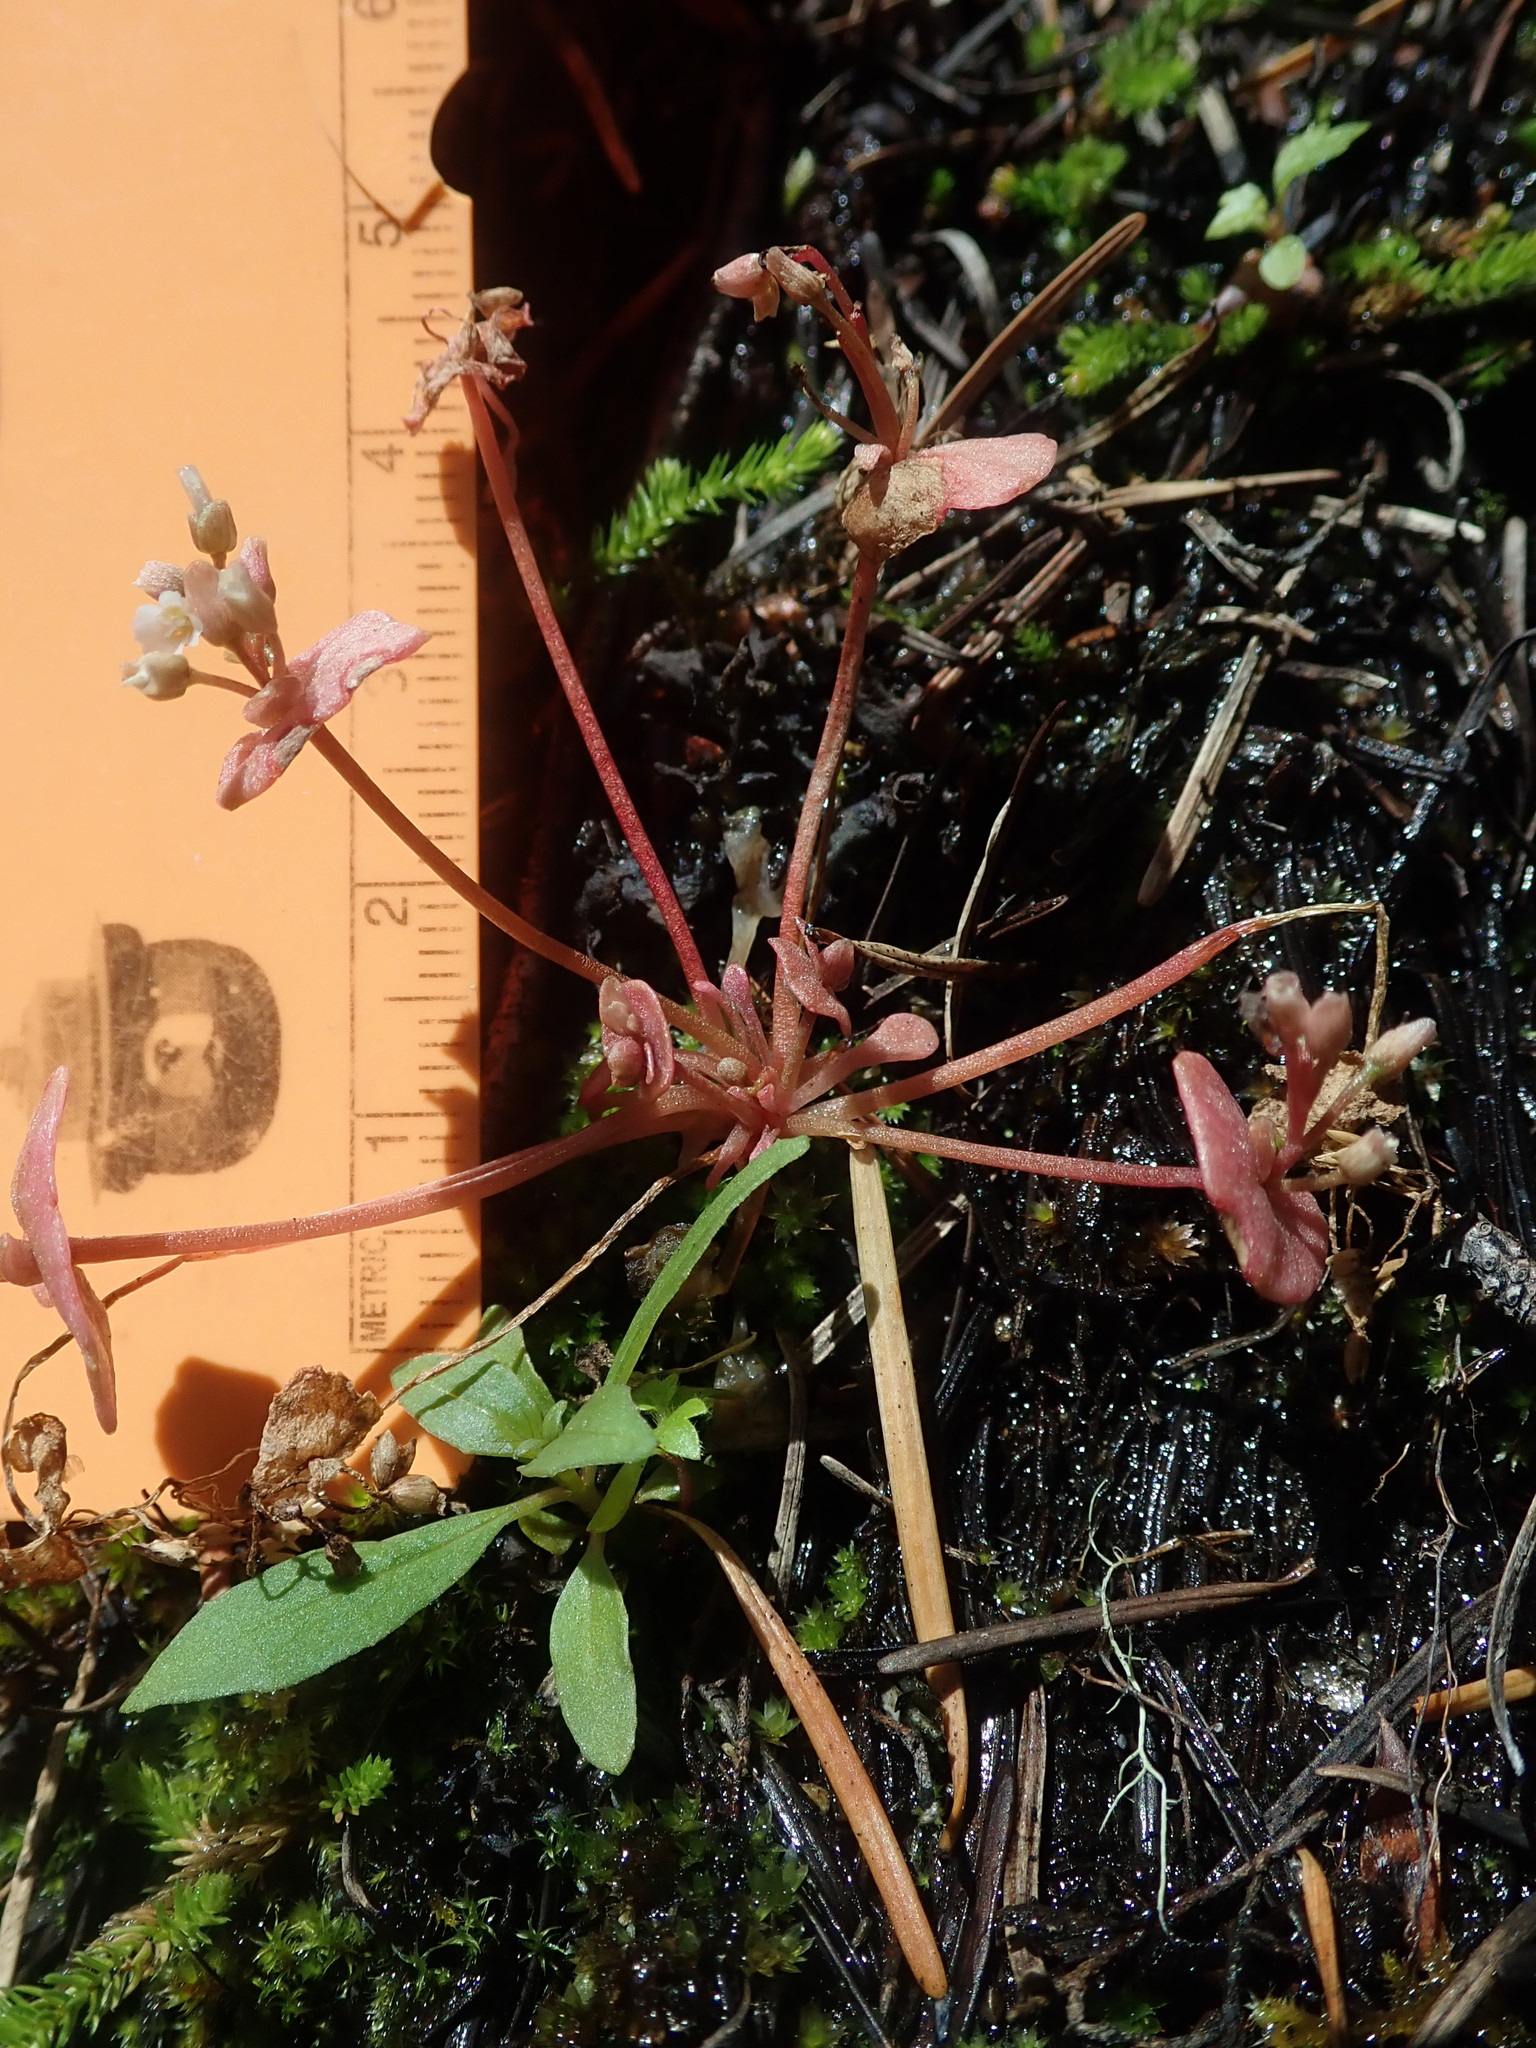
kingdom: Plantae
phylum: Tracheophyta
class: Magnoliopsida
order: Caryophyllales
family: Montiaceae
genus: Claytonia
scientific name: Claytonia rubra
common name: Erubescent miner's-lettuce
